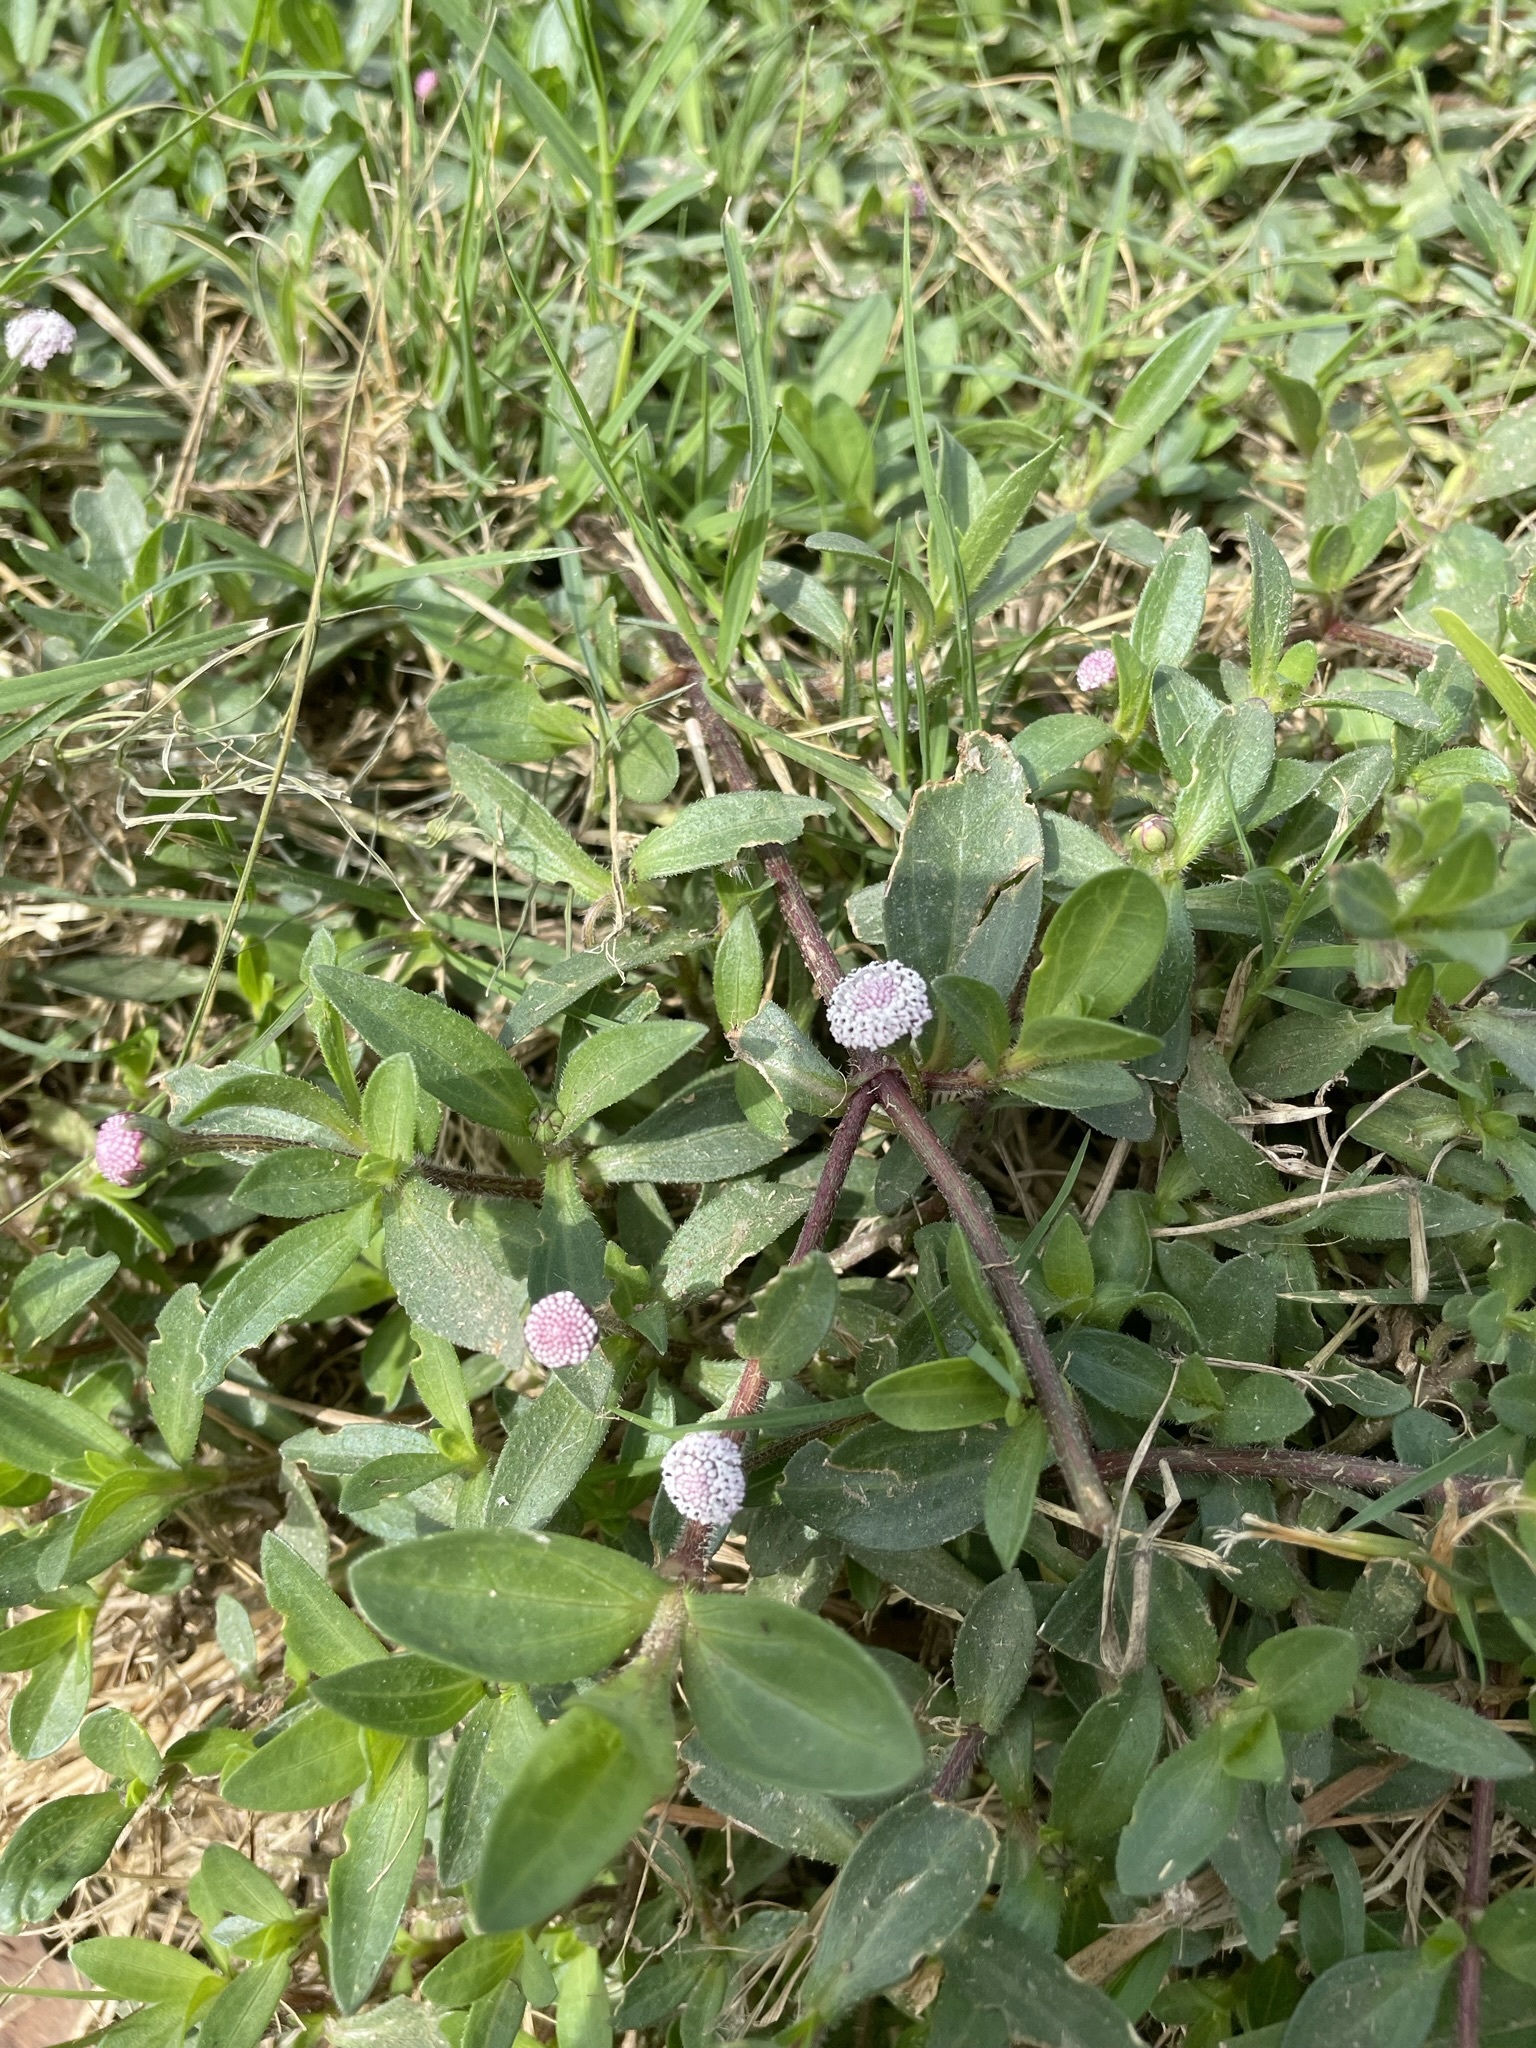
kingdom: Plantae
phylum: Tracheophyta
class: Magnoliopsida
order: Asterales
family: Asteraceae
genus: Spilanthes
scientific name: Spilanthes leiocarpa
